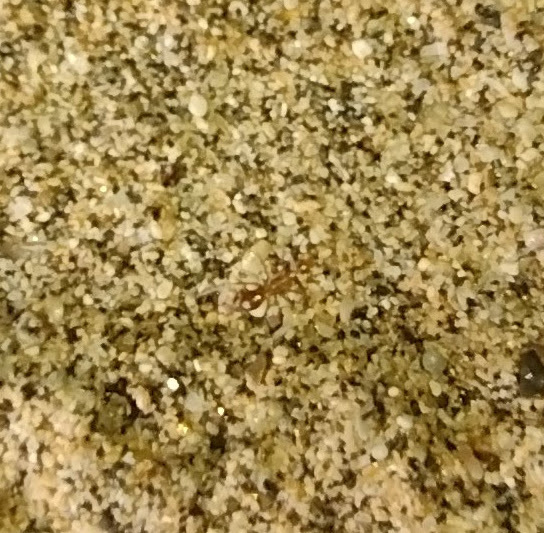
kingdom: Animalia
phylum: Arthropoda
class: Insecta
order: Hymenoptera
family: Formicidae
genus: Anoplolepis
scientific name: Anoplolepis gracilipes
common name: Ant
